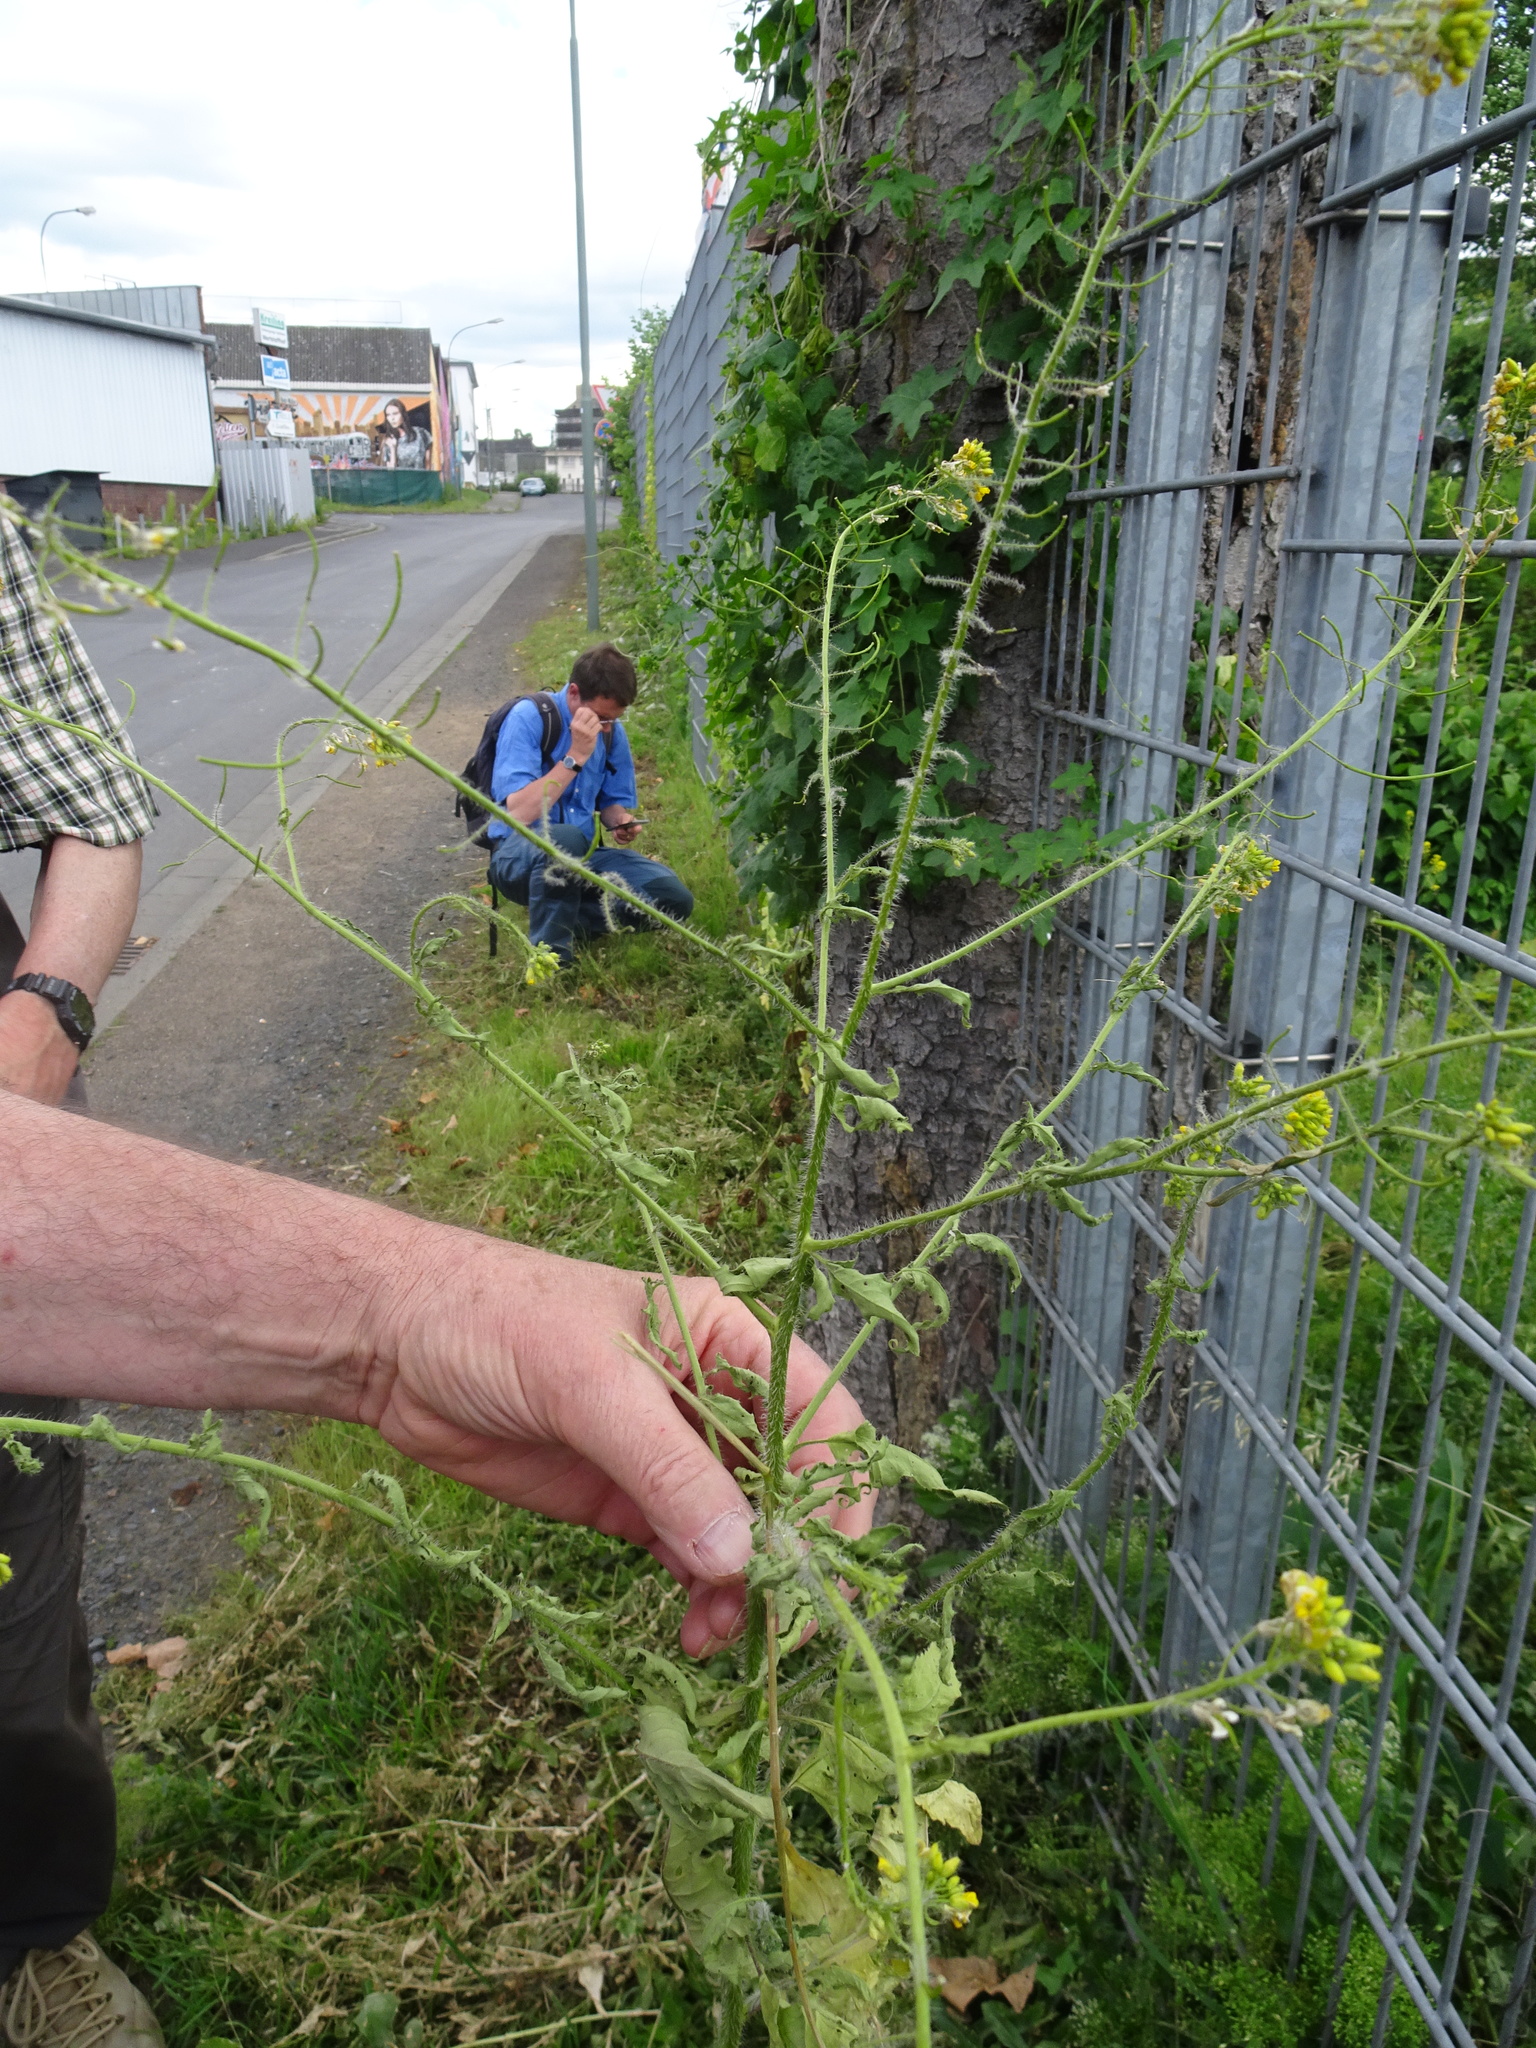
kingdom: Plantae
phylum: Tracheophyta
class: Magnoliopsida
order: Brassicales
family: Brassicaceae
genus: Sisymbrium
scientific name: Sisymbrium loeselii
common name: False london-rocket
